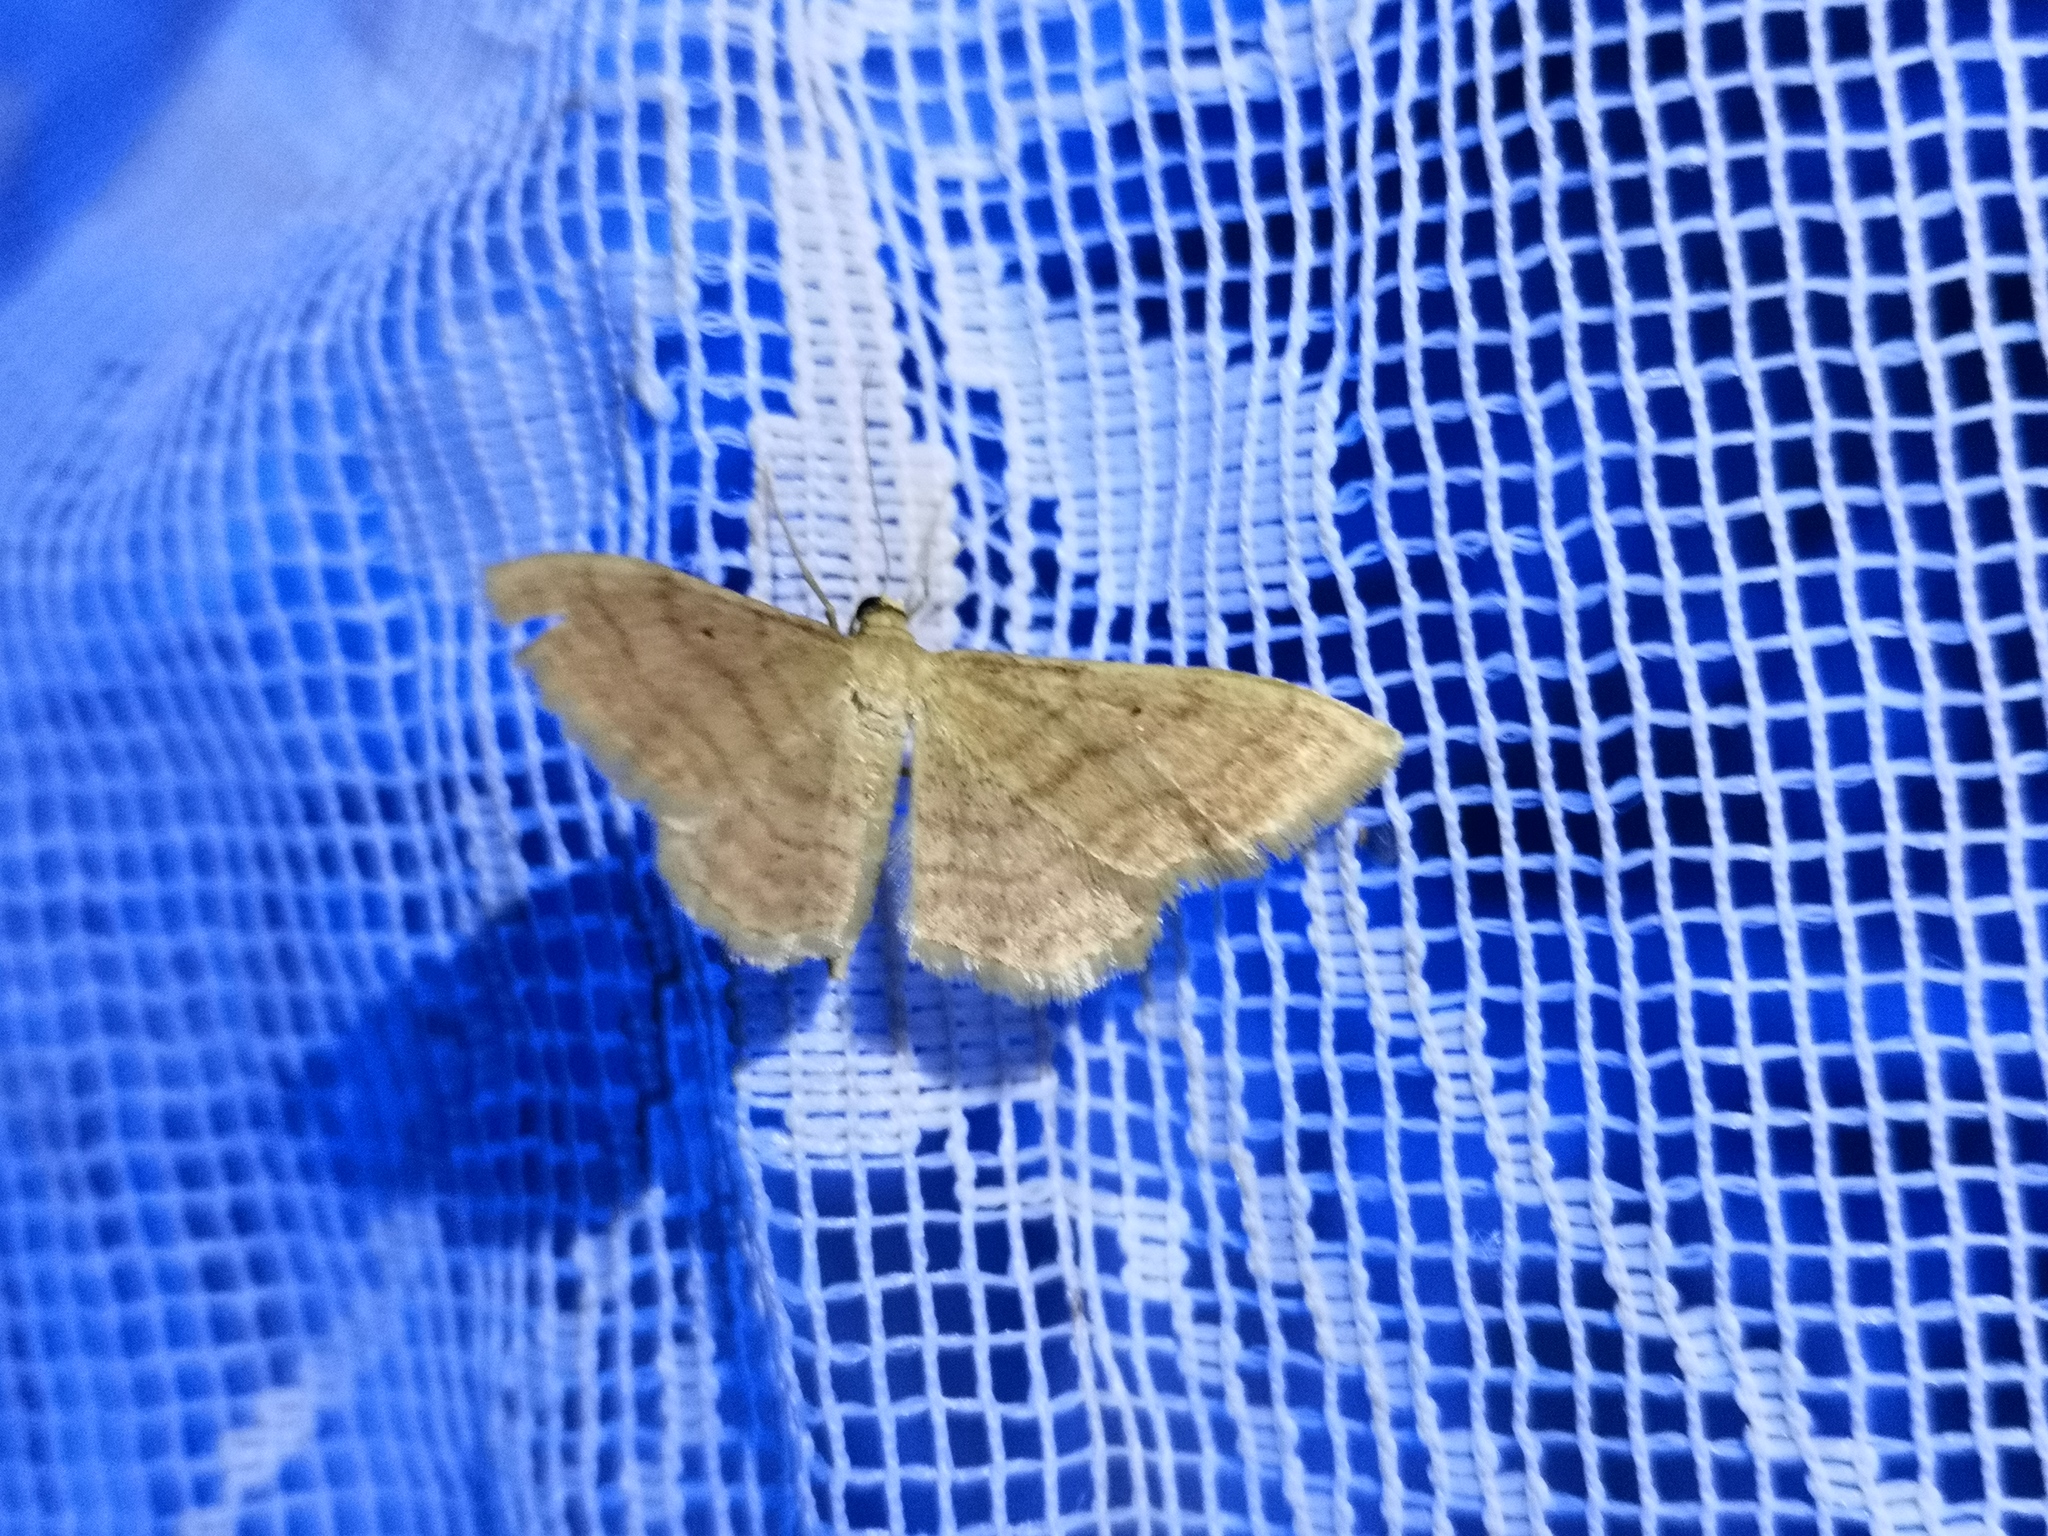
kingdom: Animalia
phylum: Arthropoda
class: Insecta
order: Lepidoptera
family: Geometridae
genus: Idaea
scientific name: Idaea rufaria
